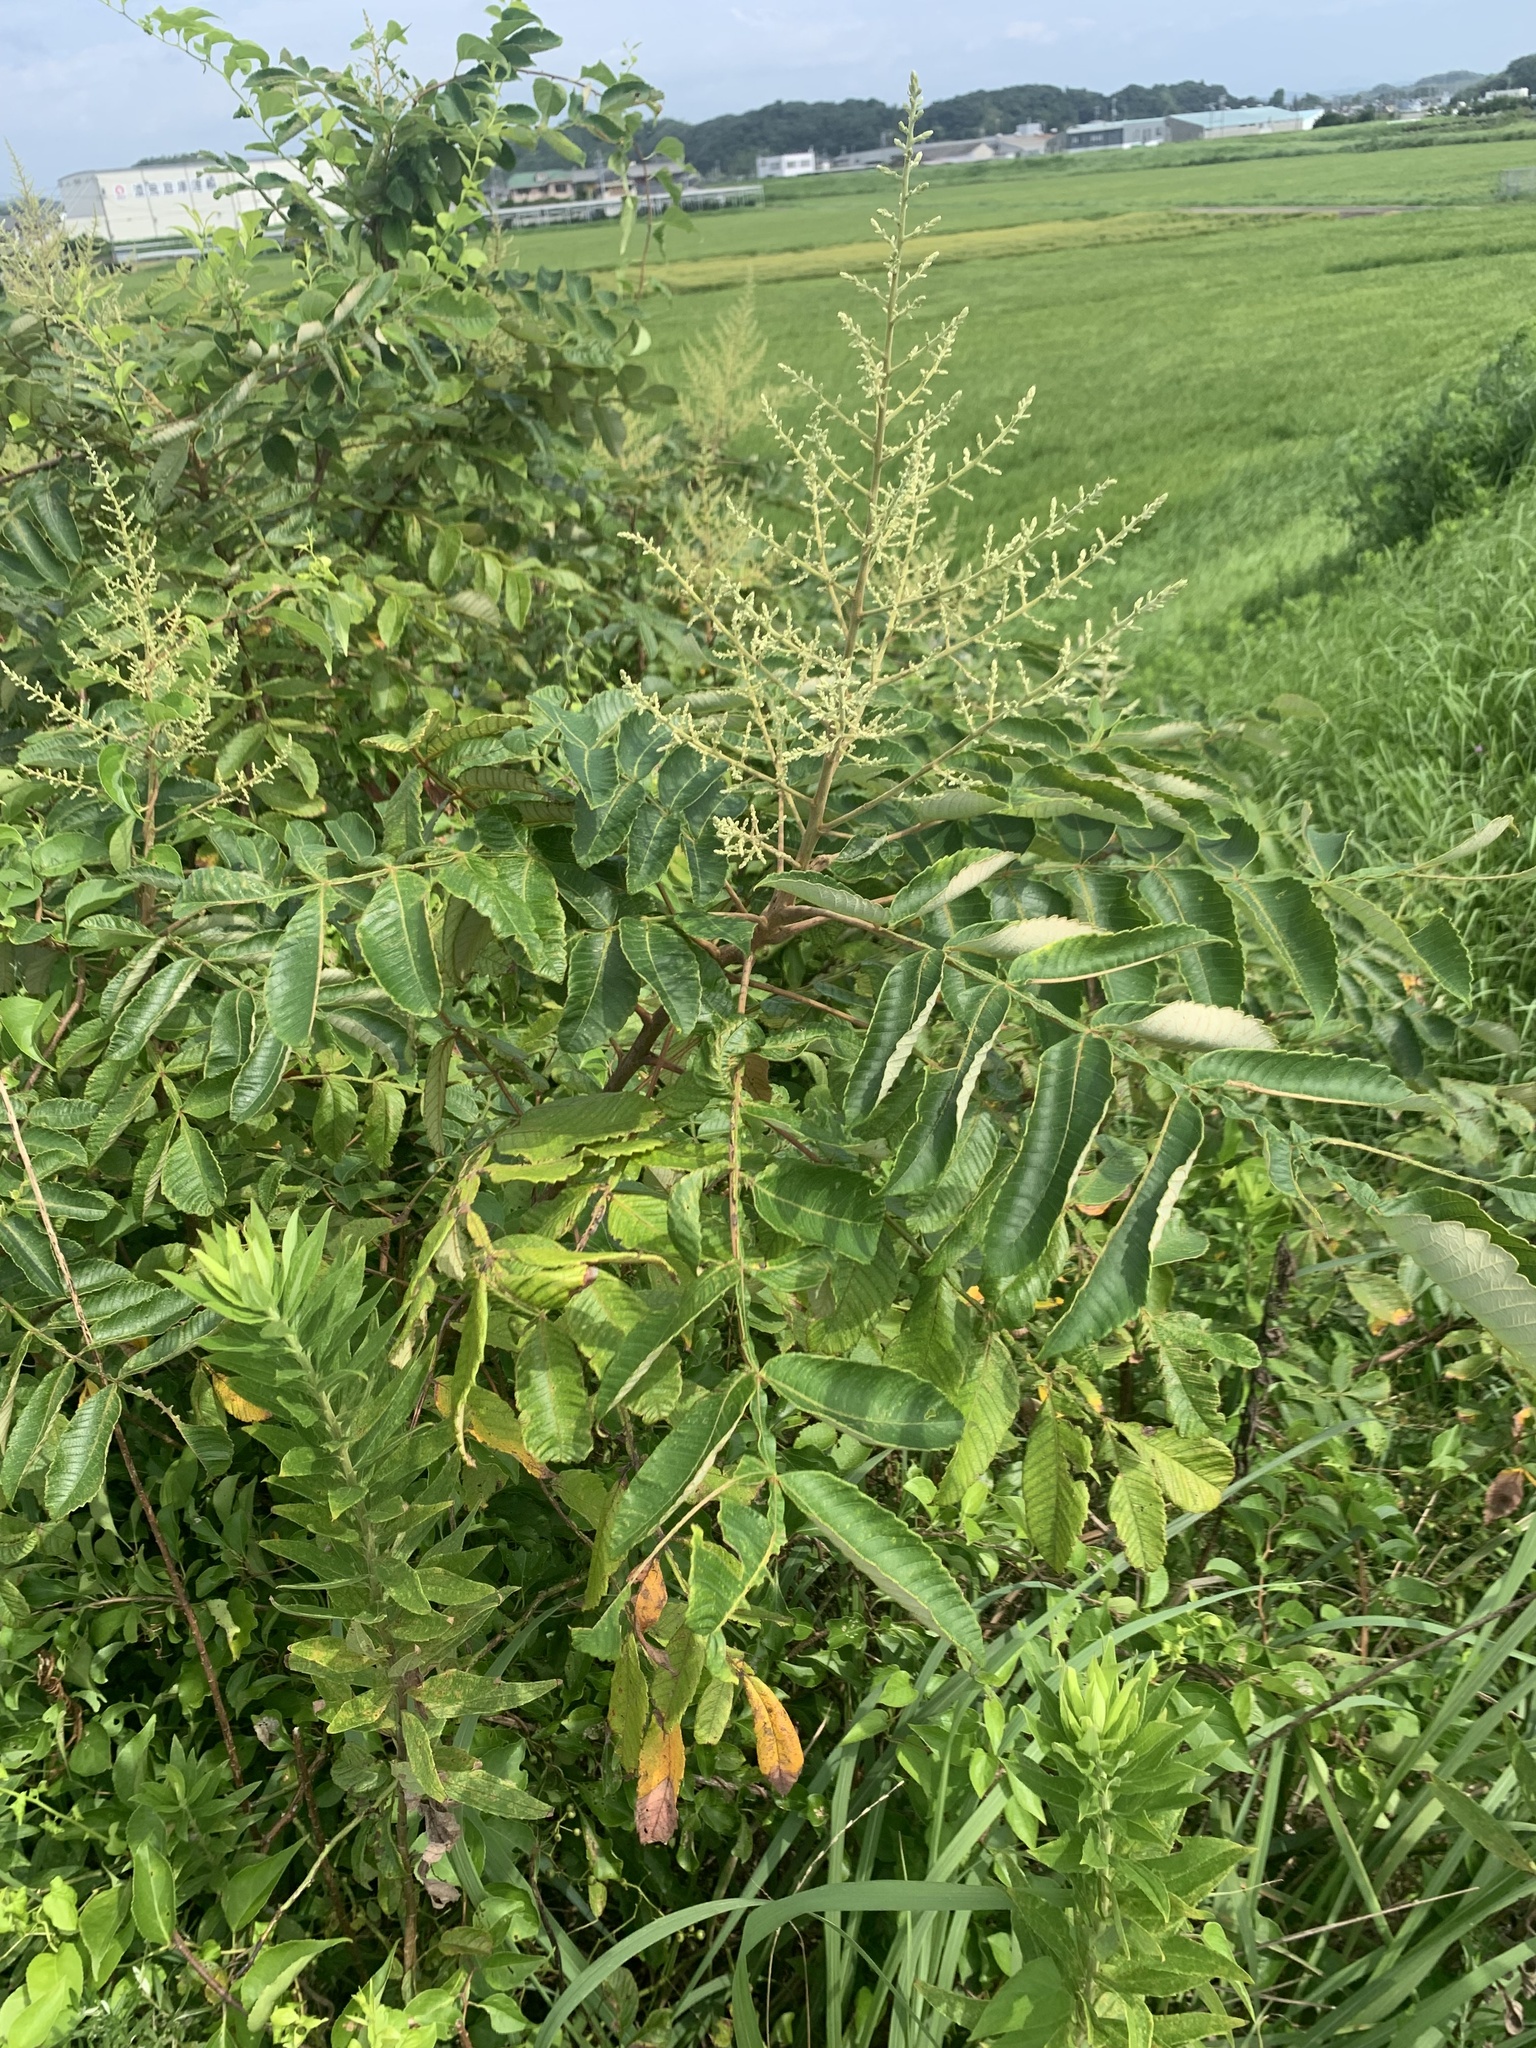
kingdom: Plantae
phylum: Tracheophyta
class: Magnoliopsida
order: Sapindales
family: Anacardiaceae
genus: Rhus
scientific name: Rhus chinensis
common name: Chinese gall
